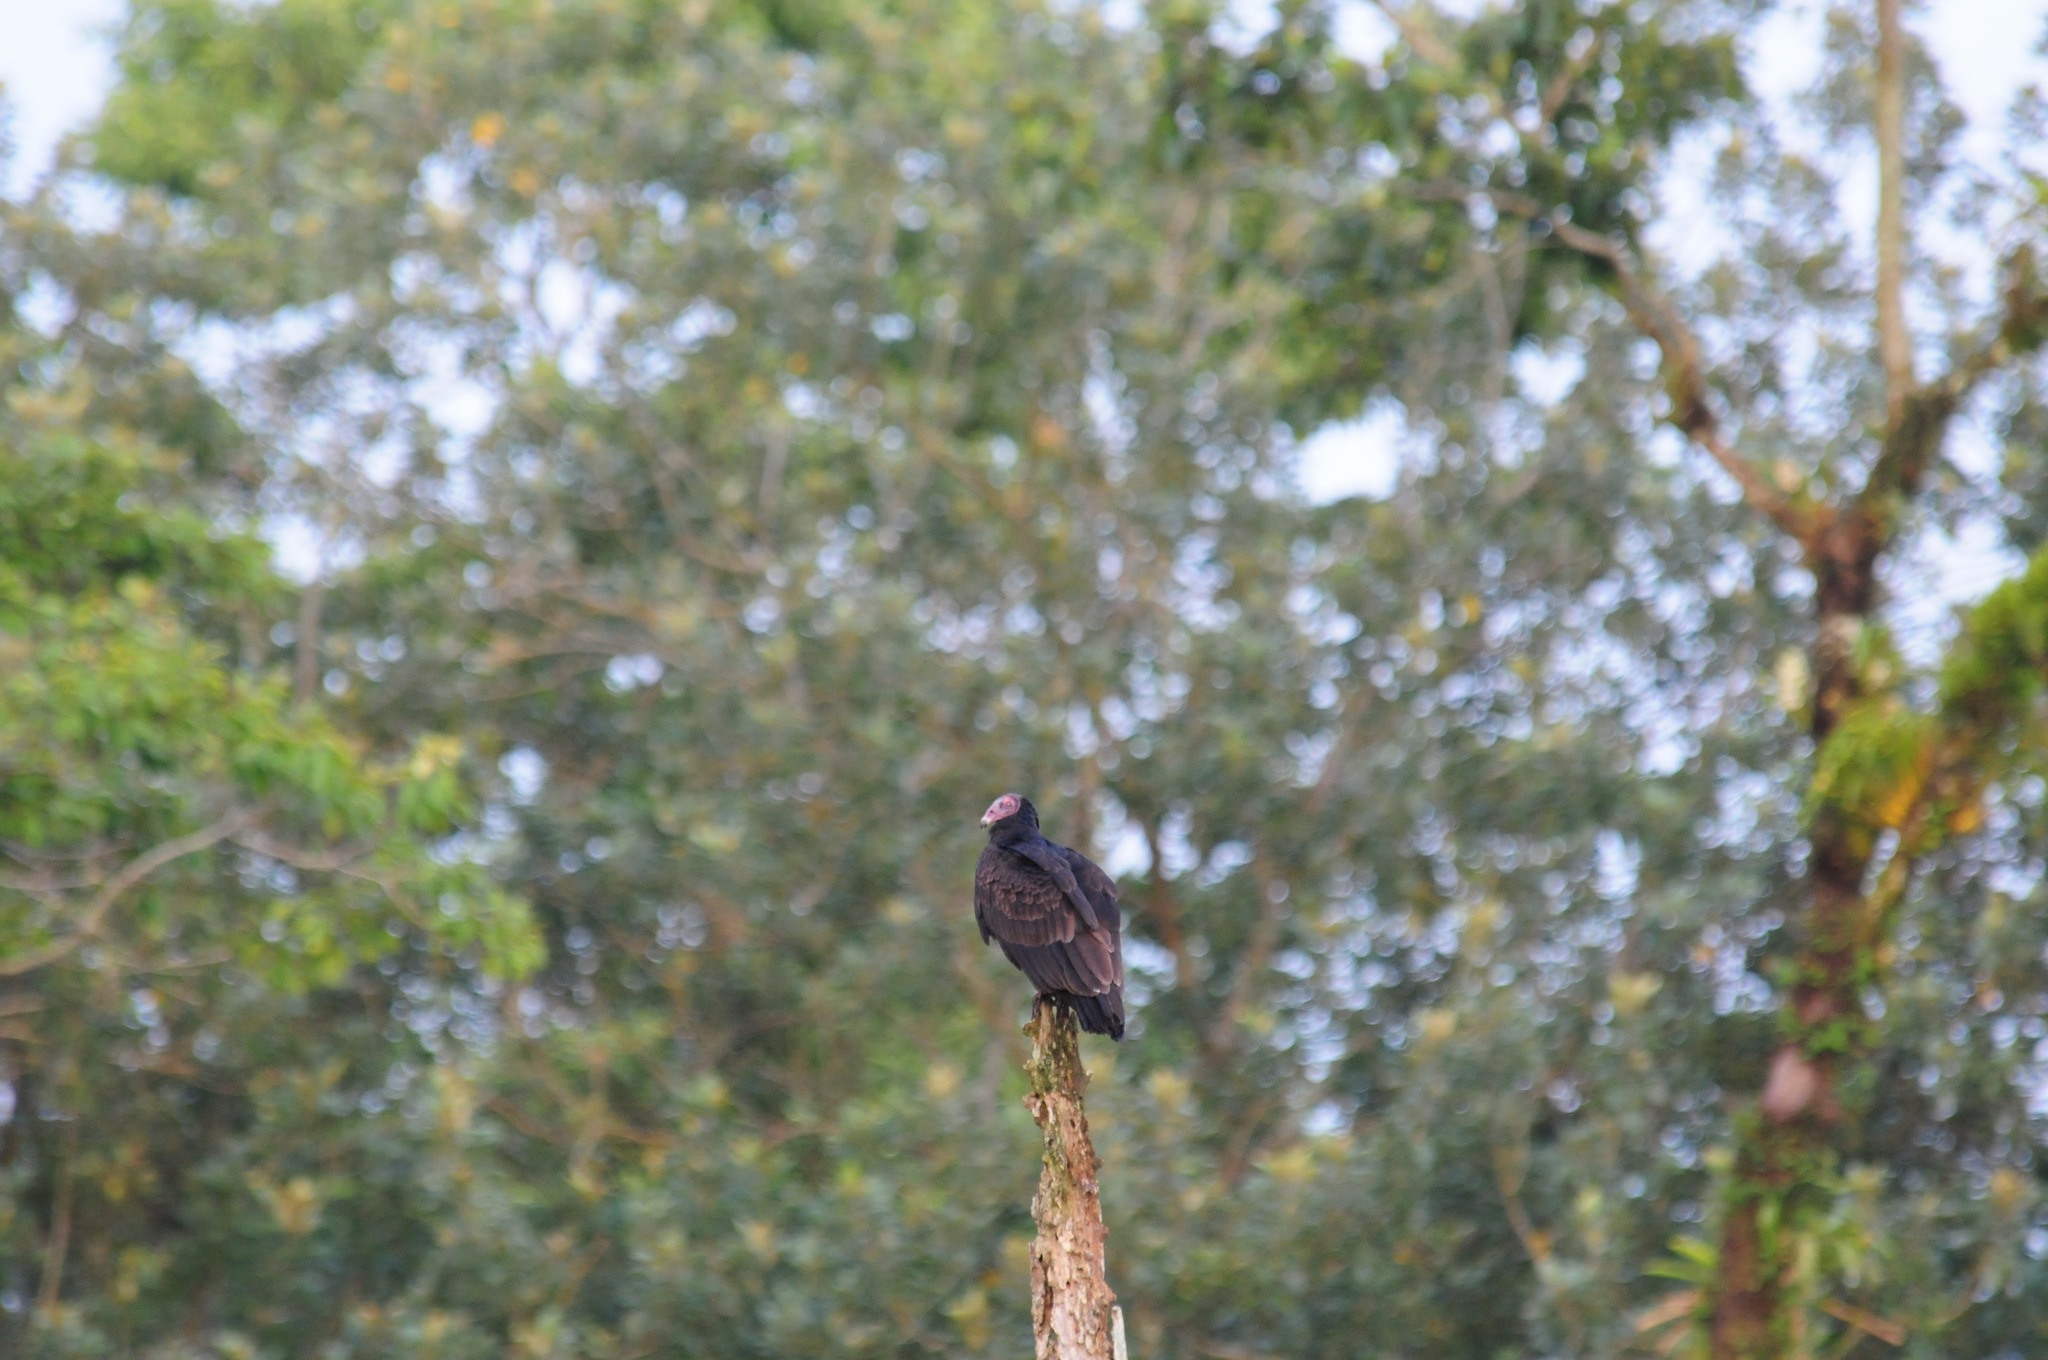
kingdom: Animalia
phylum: Chordata
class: Aves
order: Accipitriformes
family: Cathartidae
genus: Cathartes
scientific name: Cathartes aura
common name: Turkey vulture
